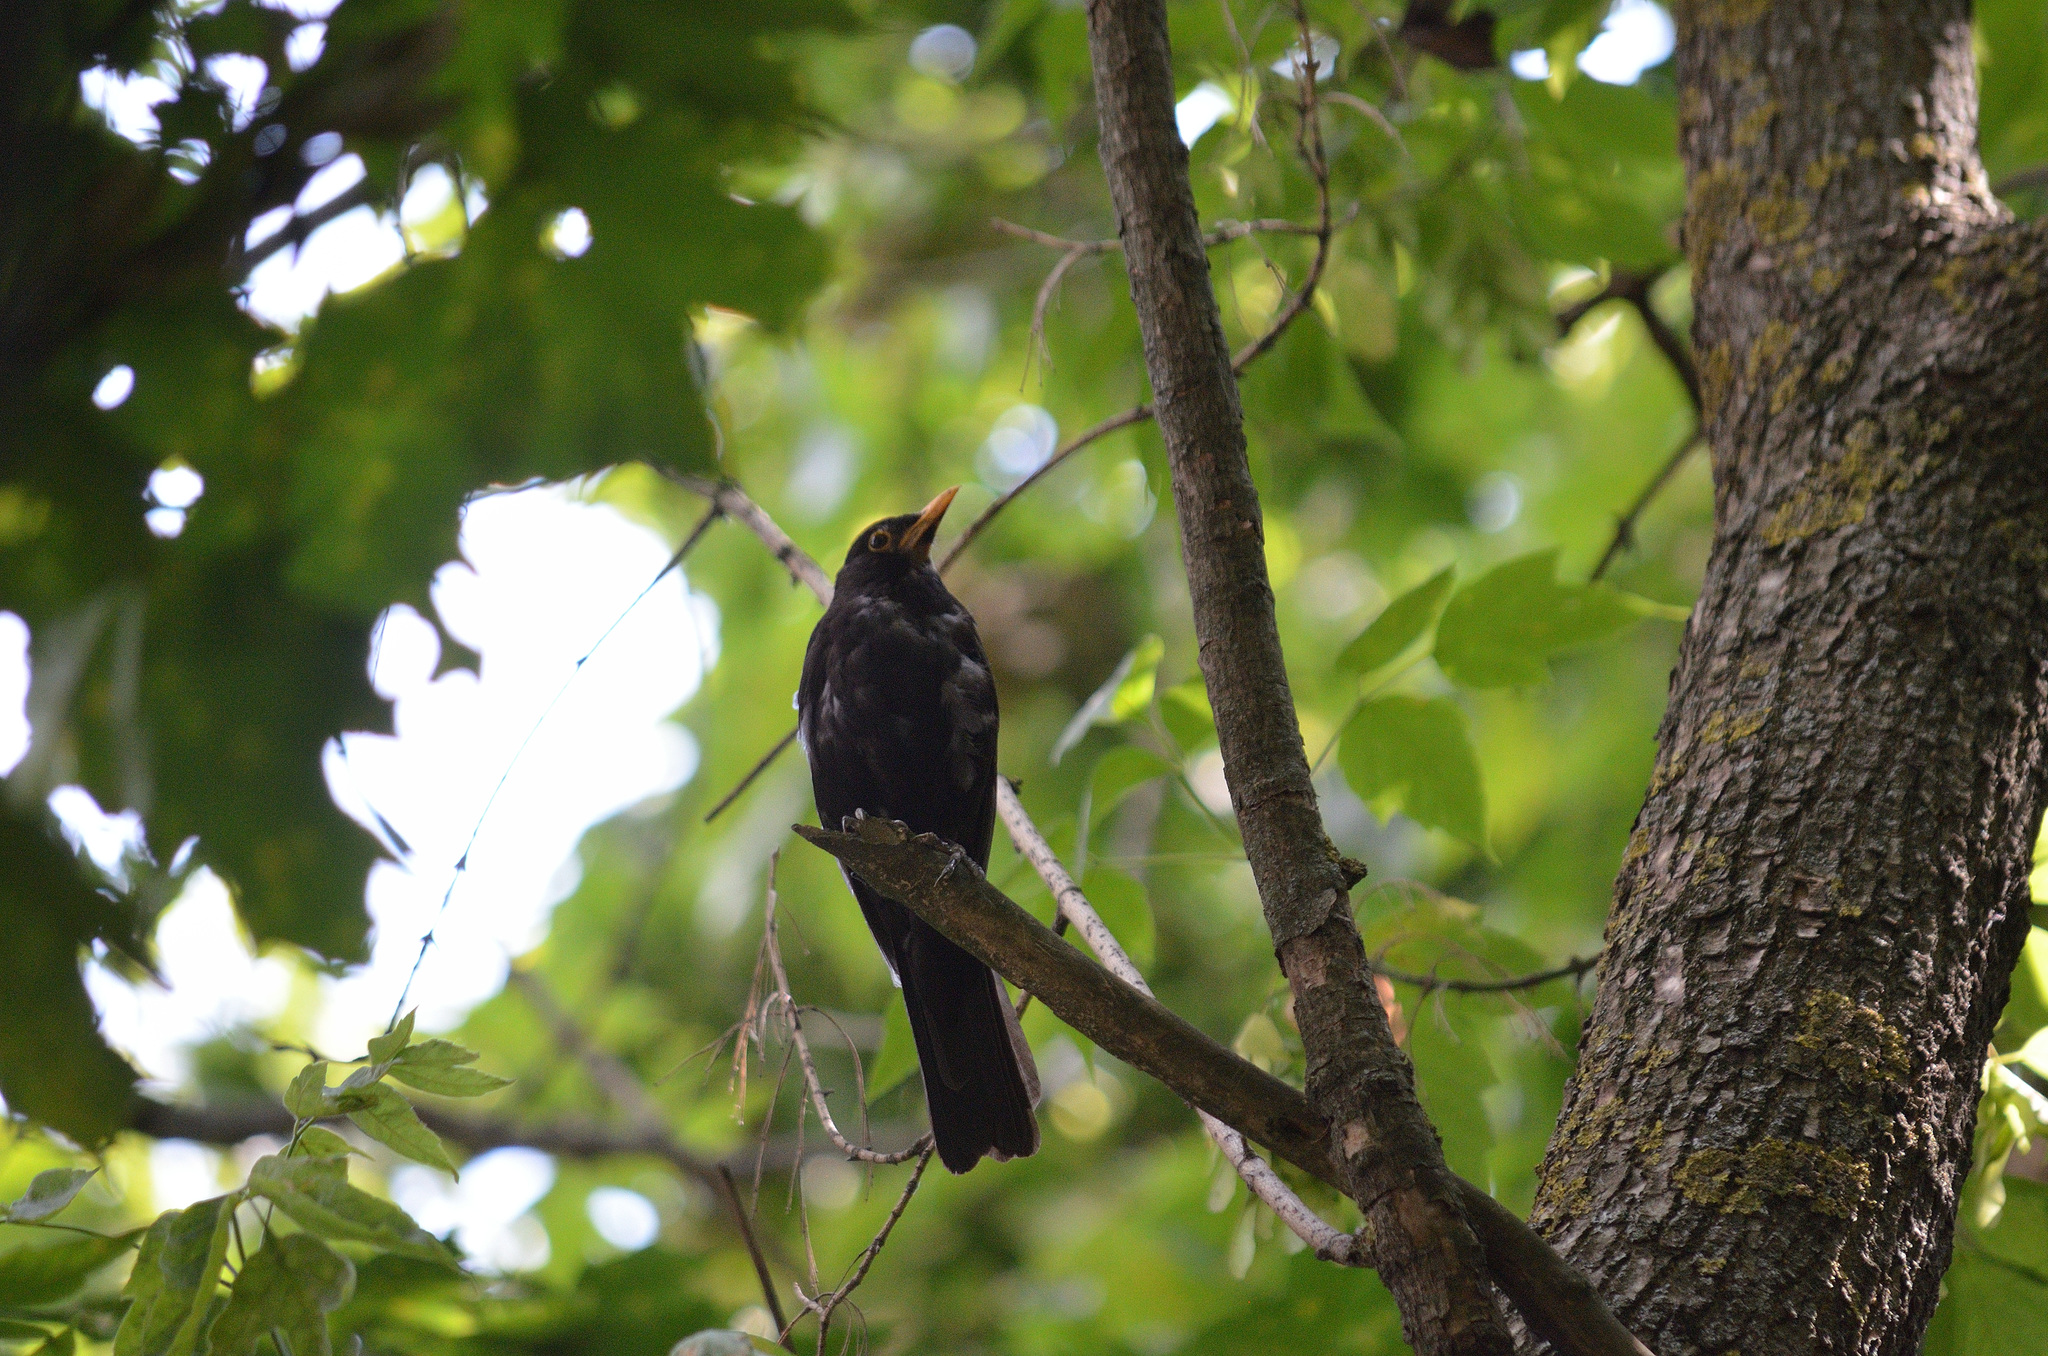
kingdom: Animalia
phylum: Chordata
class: Aves
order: Passeriformes
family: Turdidae
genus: Turdus
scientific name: Turdus merula
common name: Common blackbird
